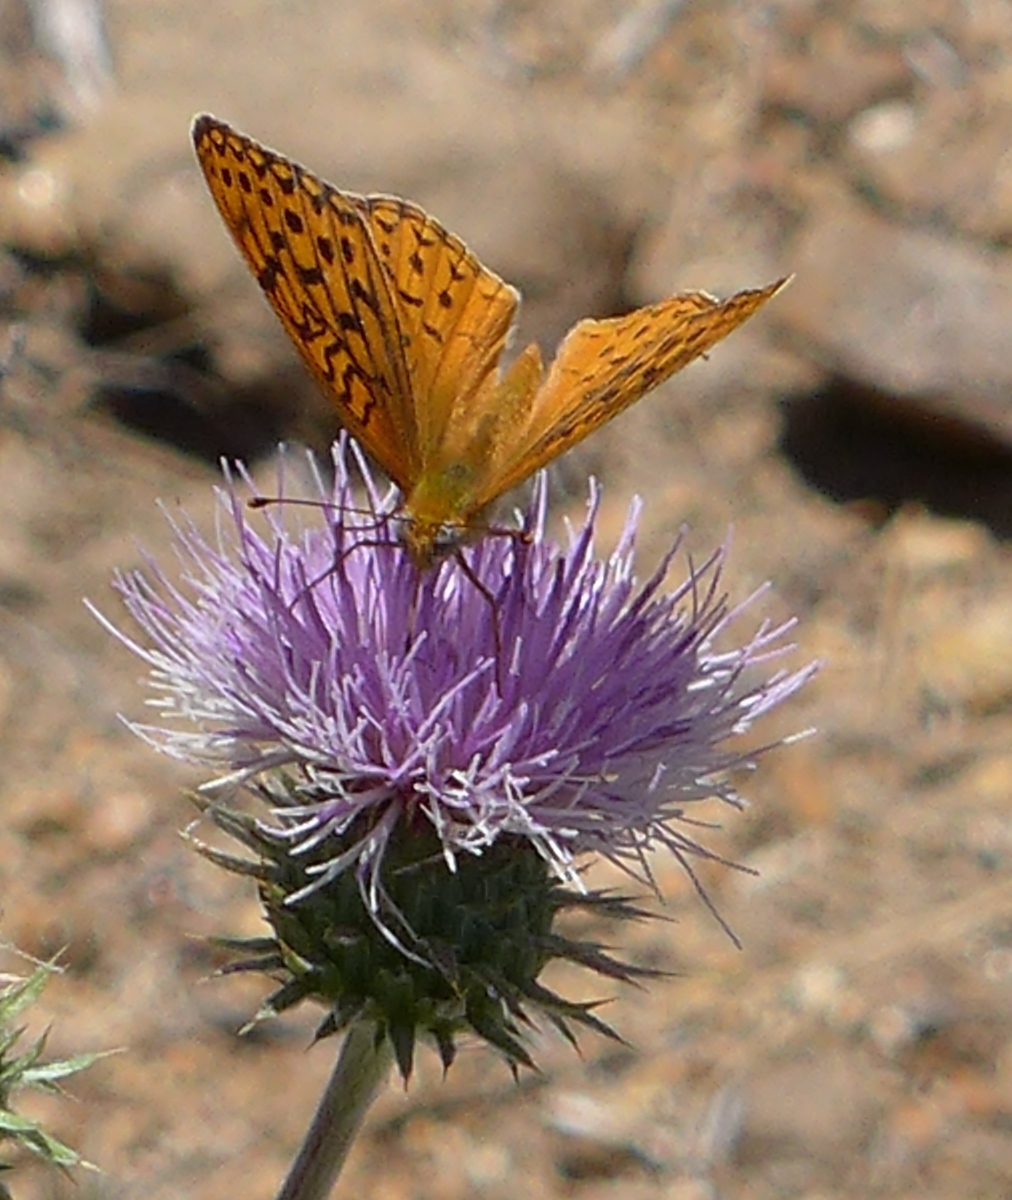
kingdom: Animalia
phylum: Arthropoda
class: Insecta
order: Lepidoptera
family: Nymphalidae
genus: Speyeria
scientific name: Speyeria adiaste
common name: Unsilvered fritillary
